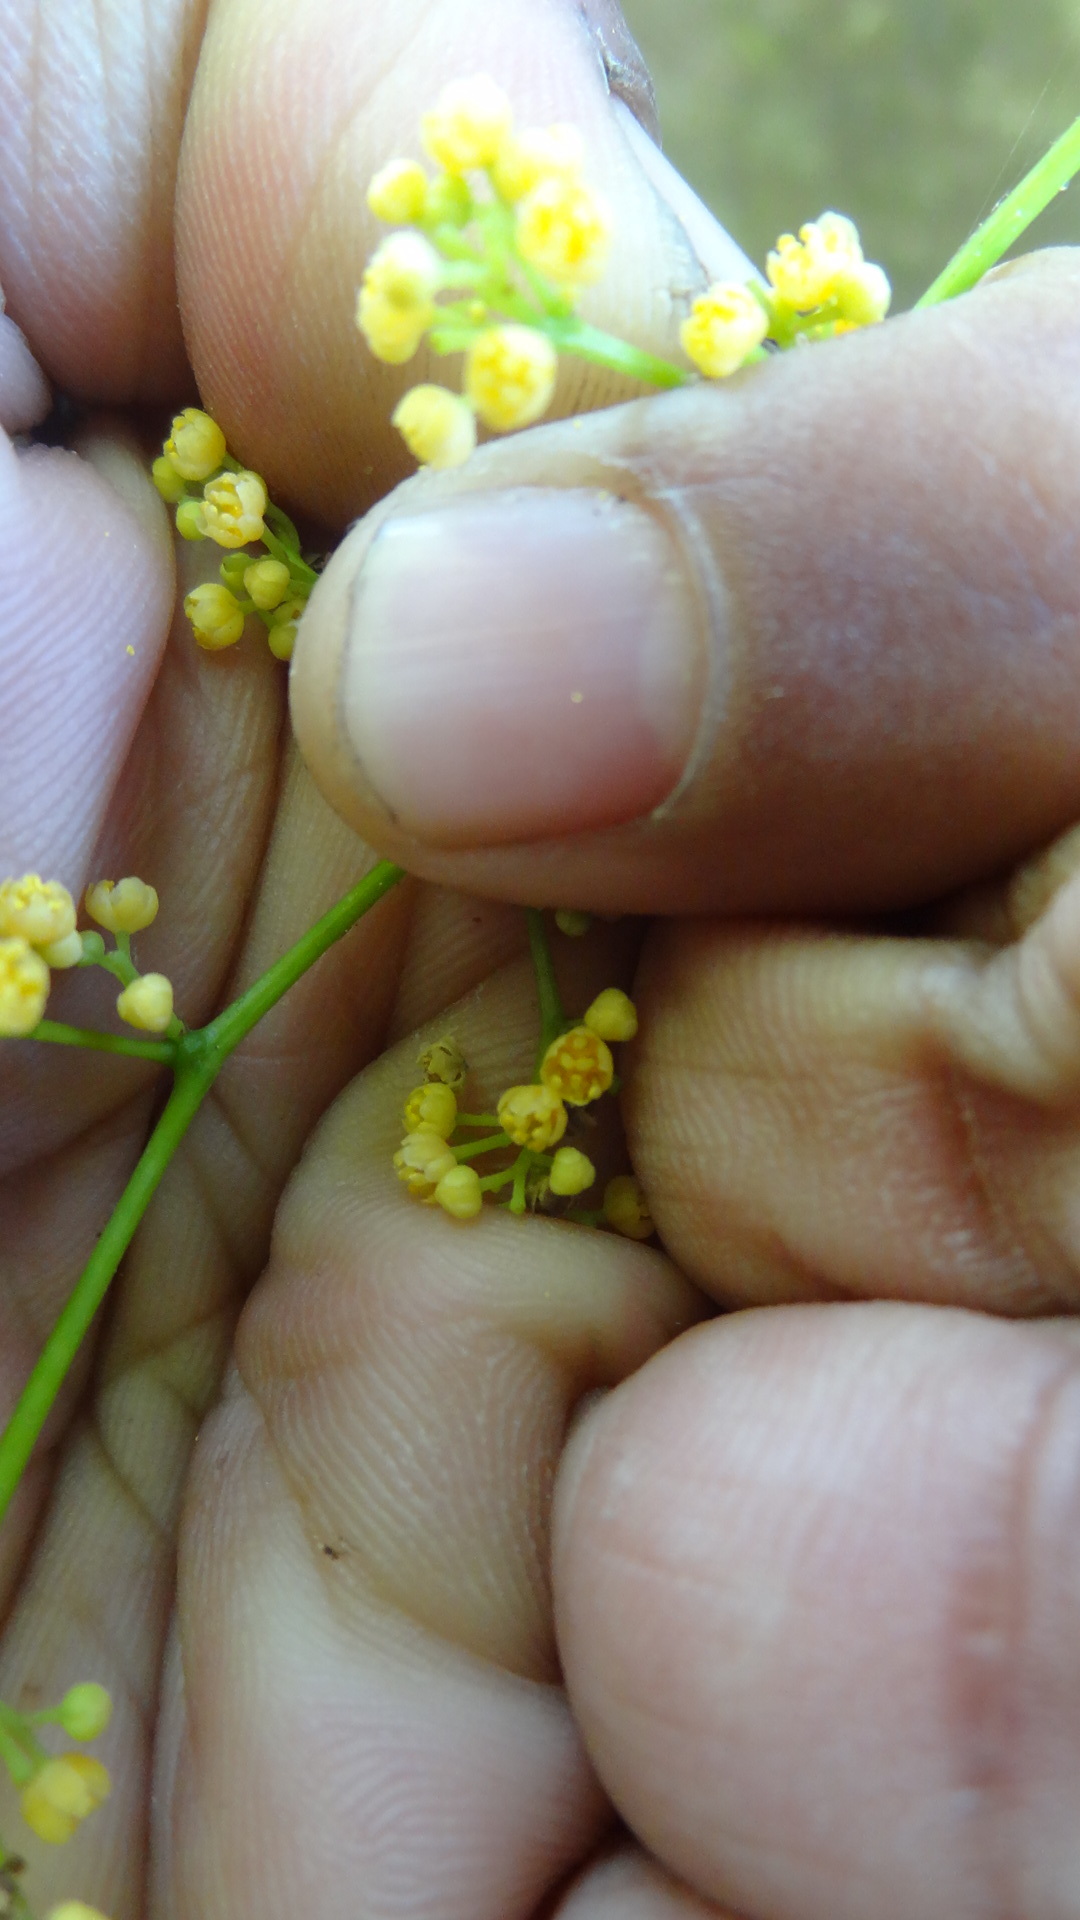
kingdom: Plantae
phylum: Tracheophyta
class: Magnoliopsida
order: Ranunculales
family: Menispermaceae
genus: Diploclisia
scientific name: Diploclisia glaucescens
